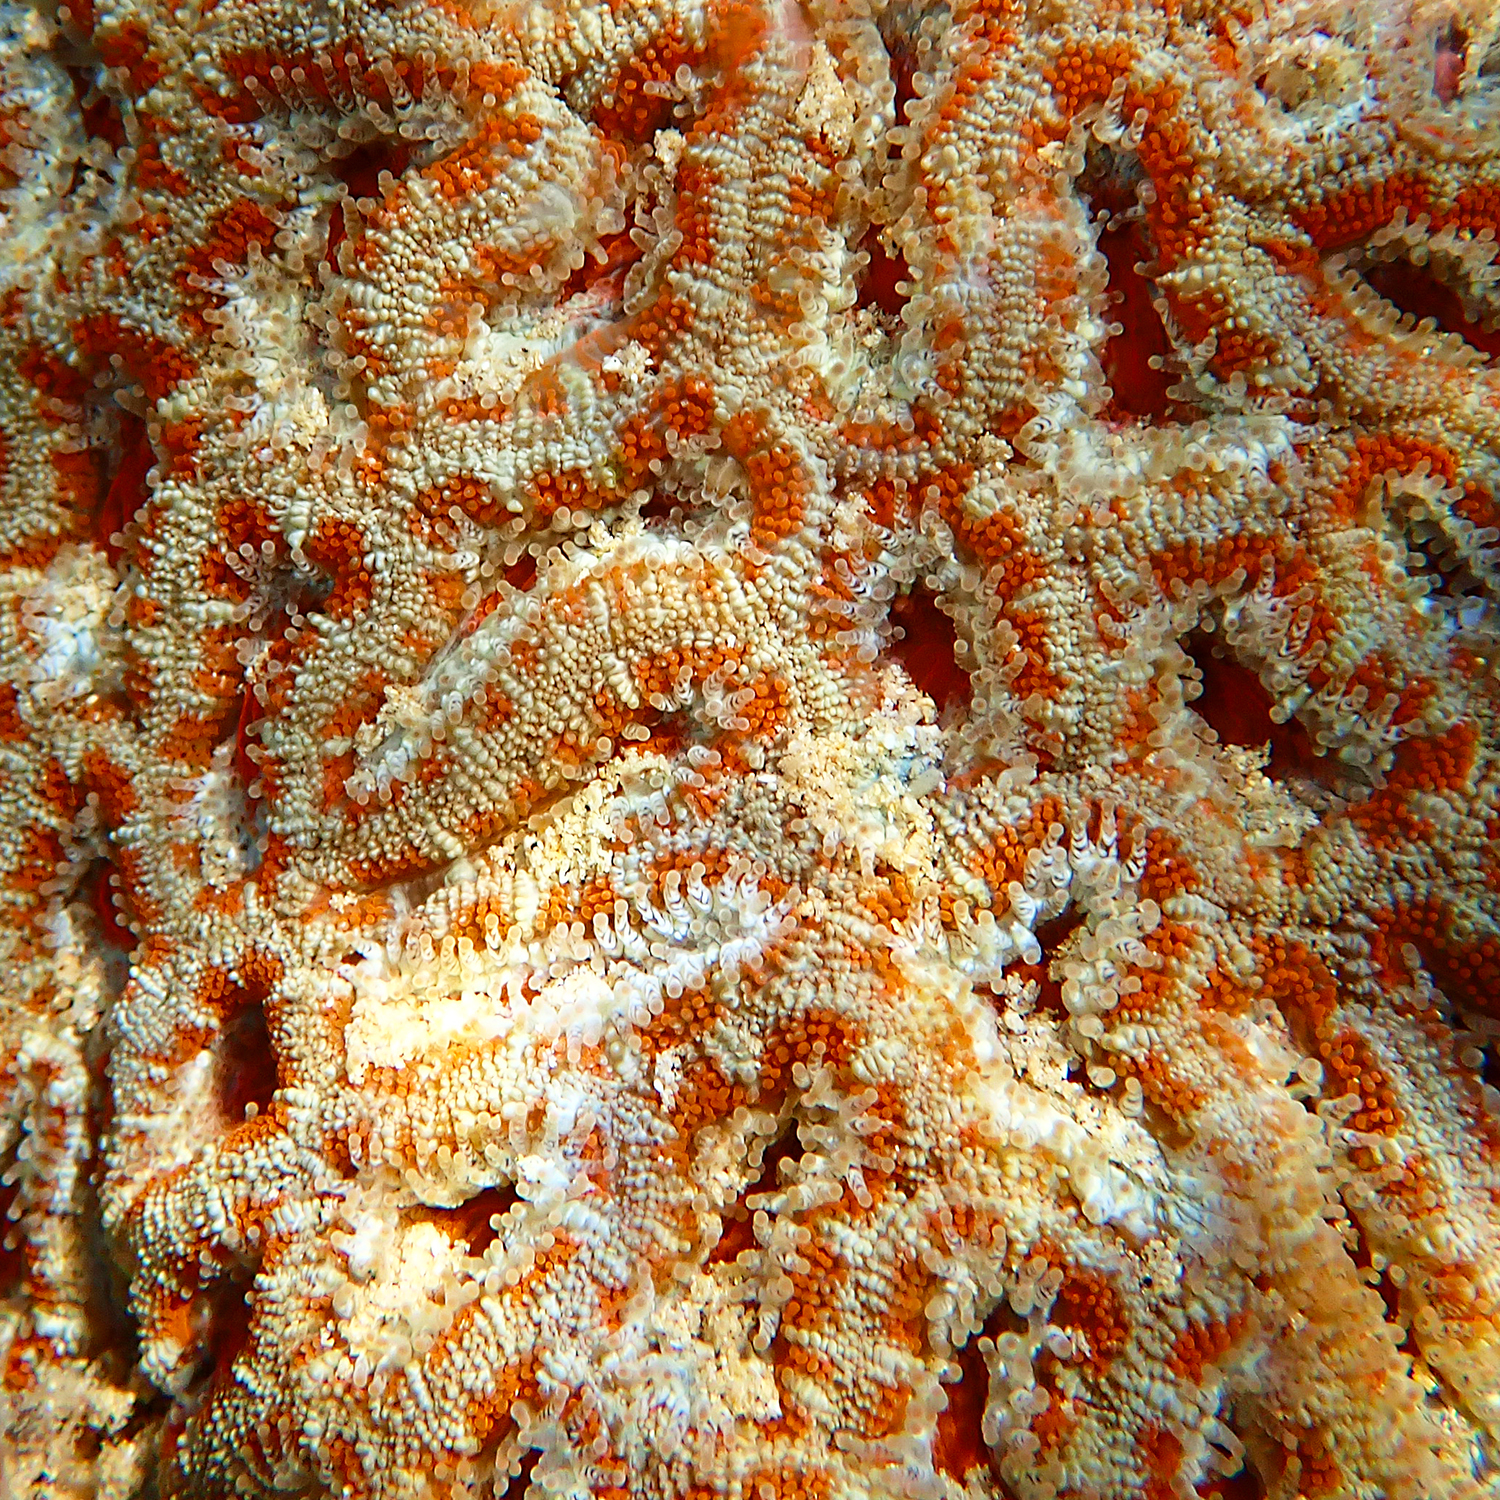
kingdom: Animalia
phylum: Cnidaria
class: Anthozoa
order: Scleractinia
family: Lobophylliidae
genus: Micromussa
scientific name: Micromussa lordhowensis
